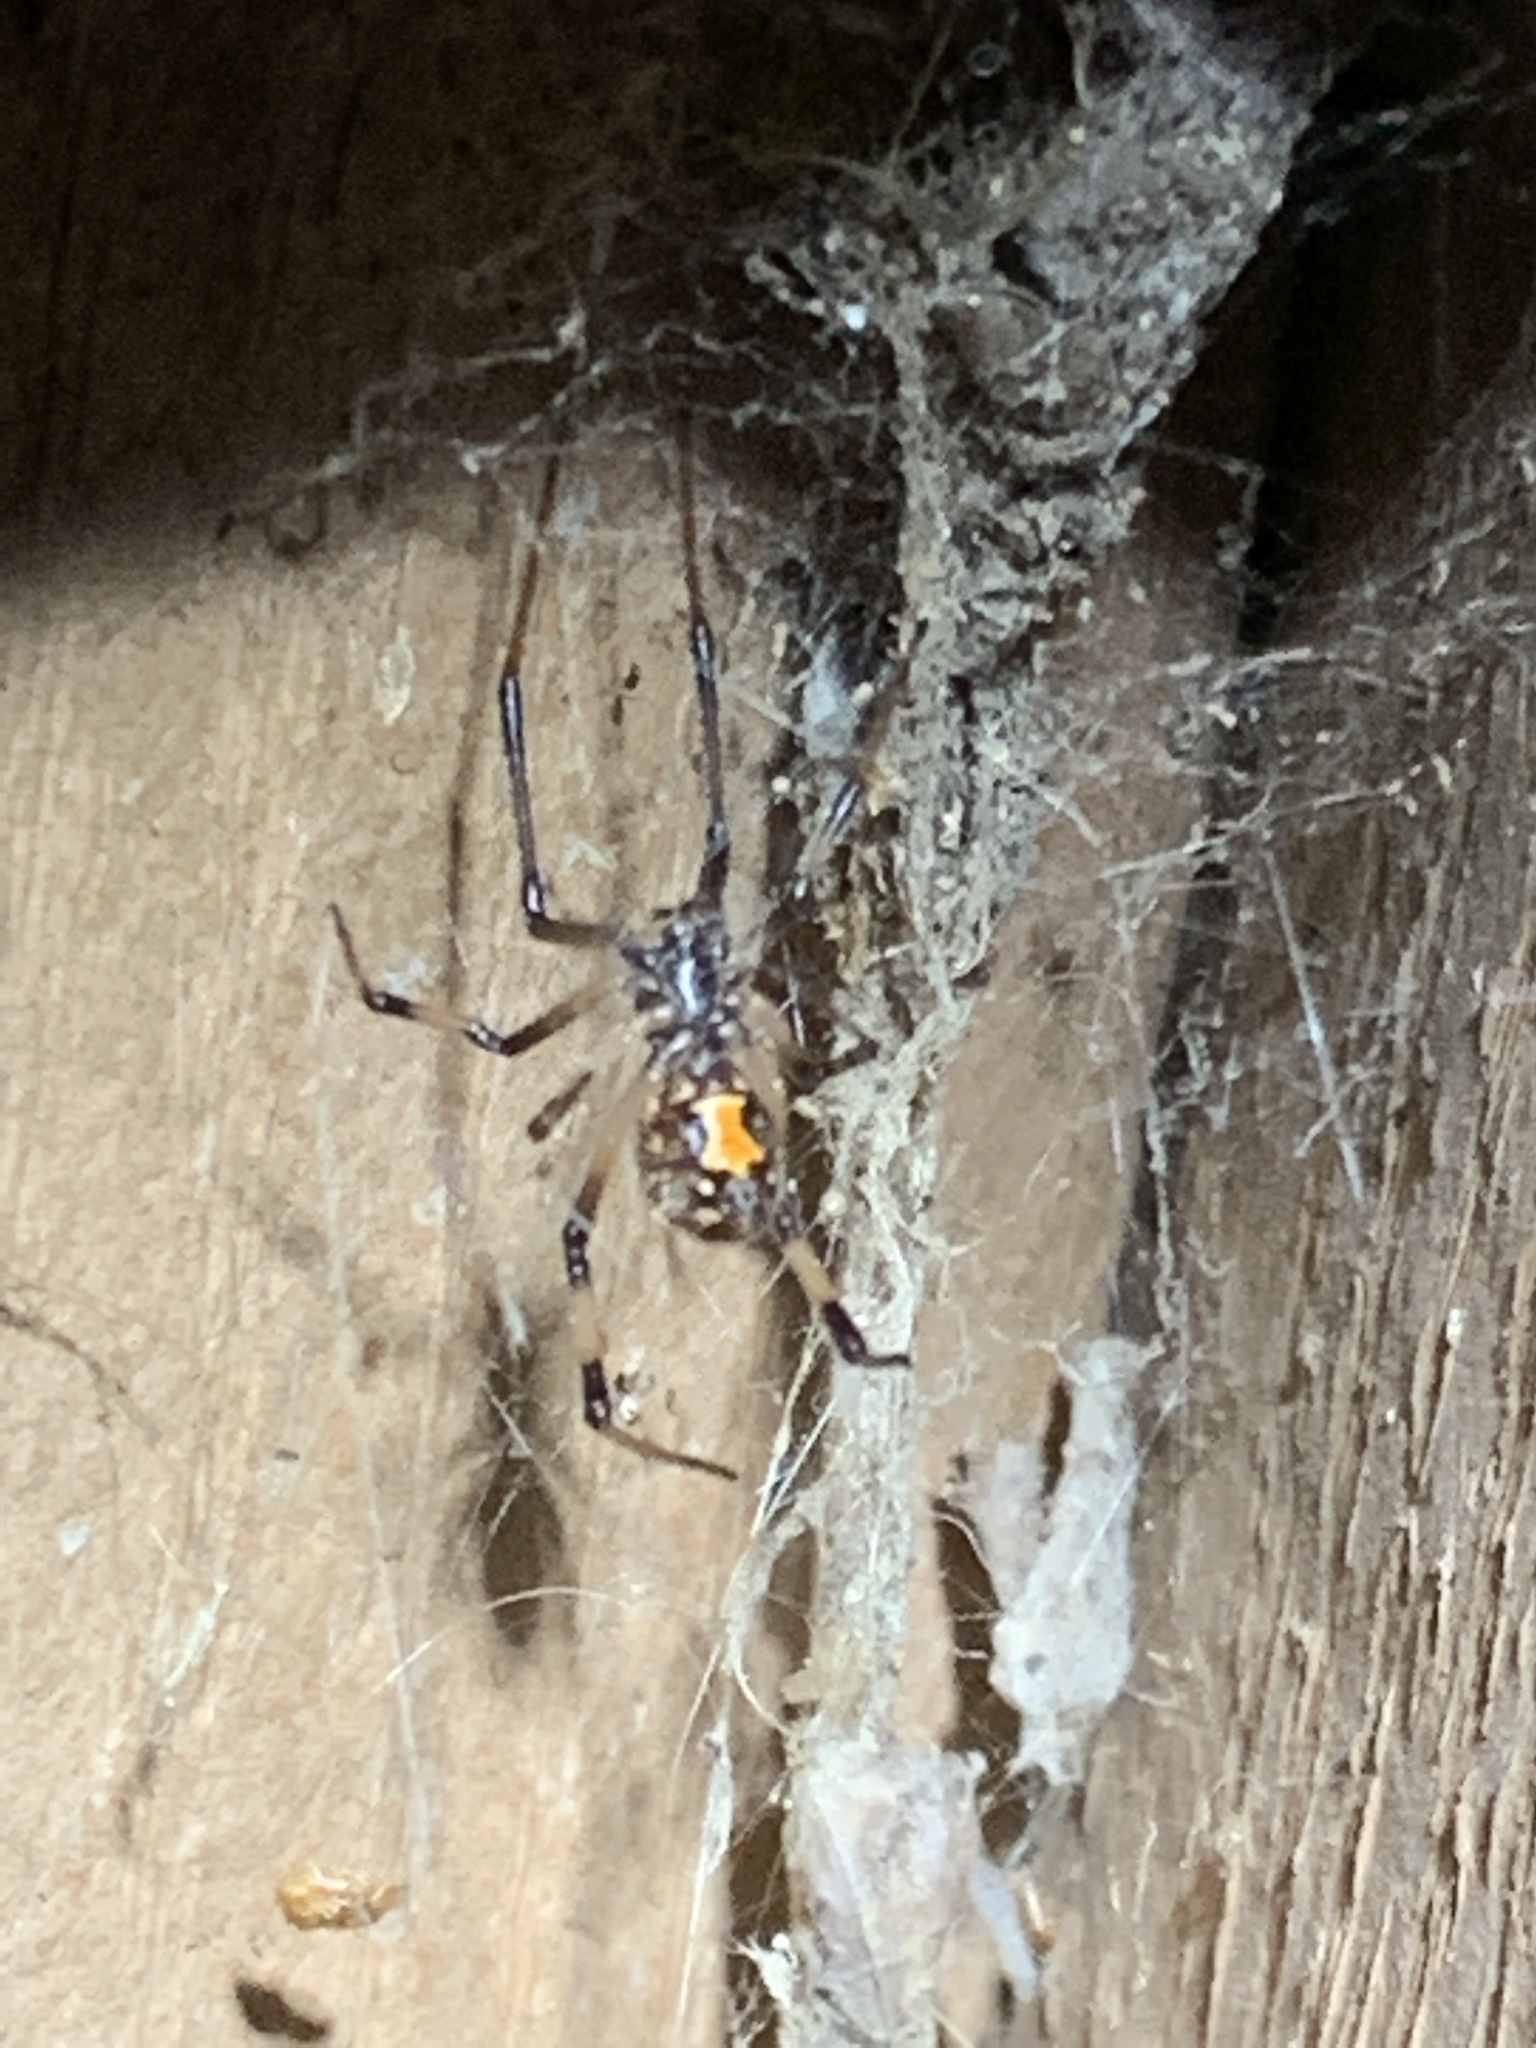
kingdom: Animalia
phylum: Arthropoda
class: Arachnida
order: Araneae
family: Theridiidae
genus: Latrodectus
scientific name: Latrodectus geometricus
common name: Brown widow spider
